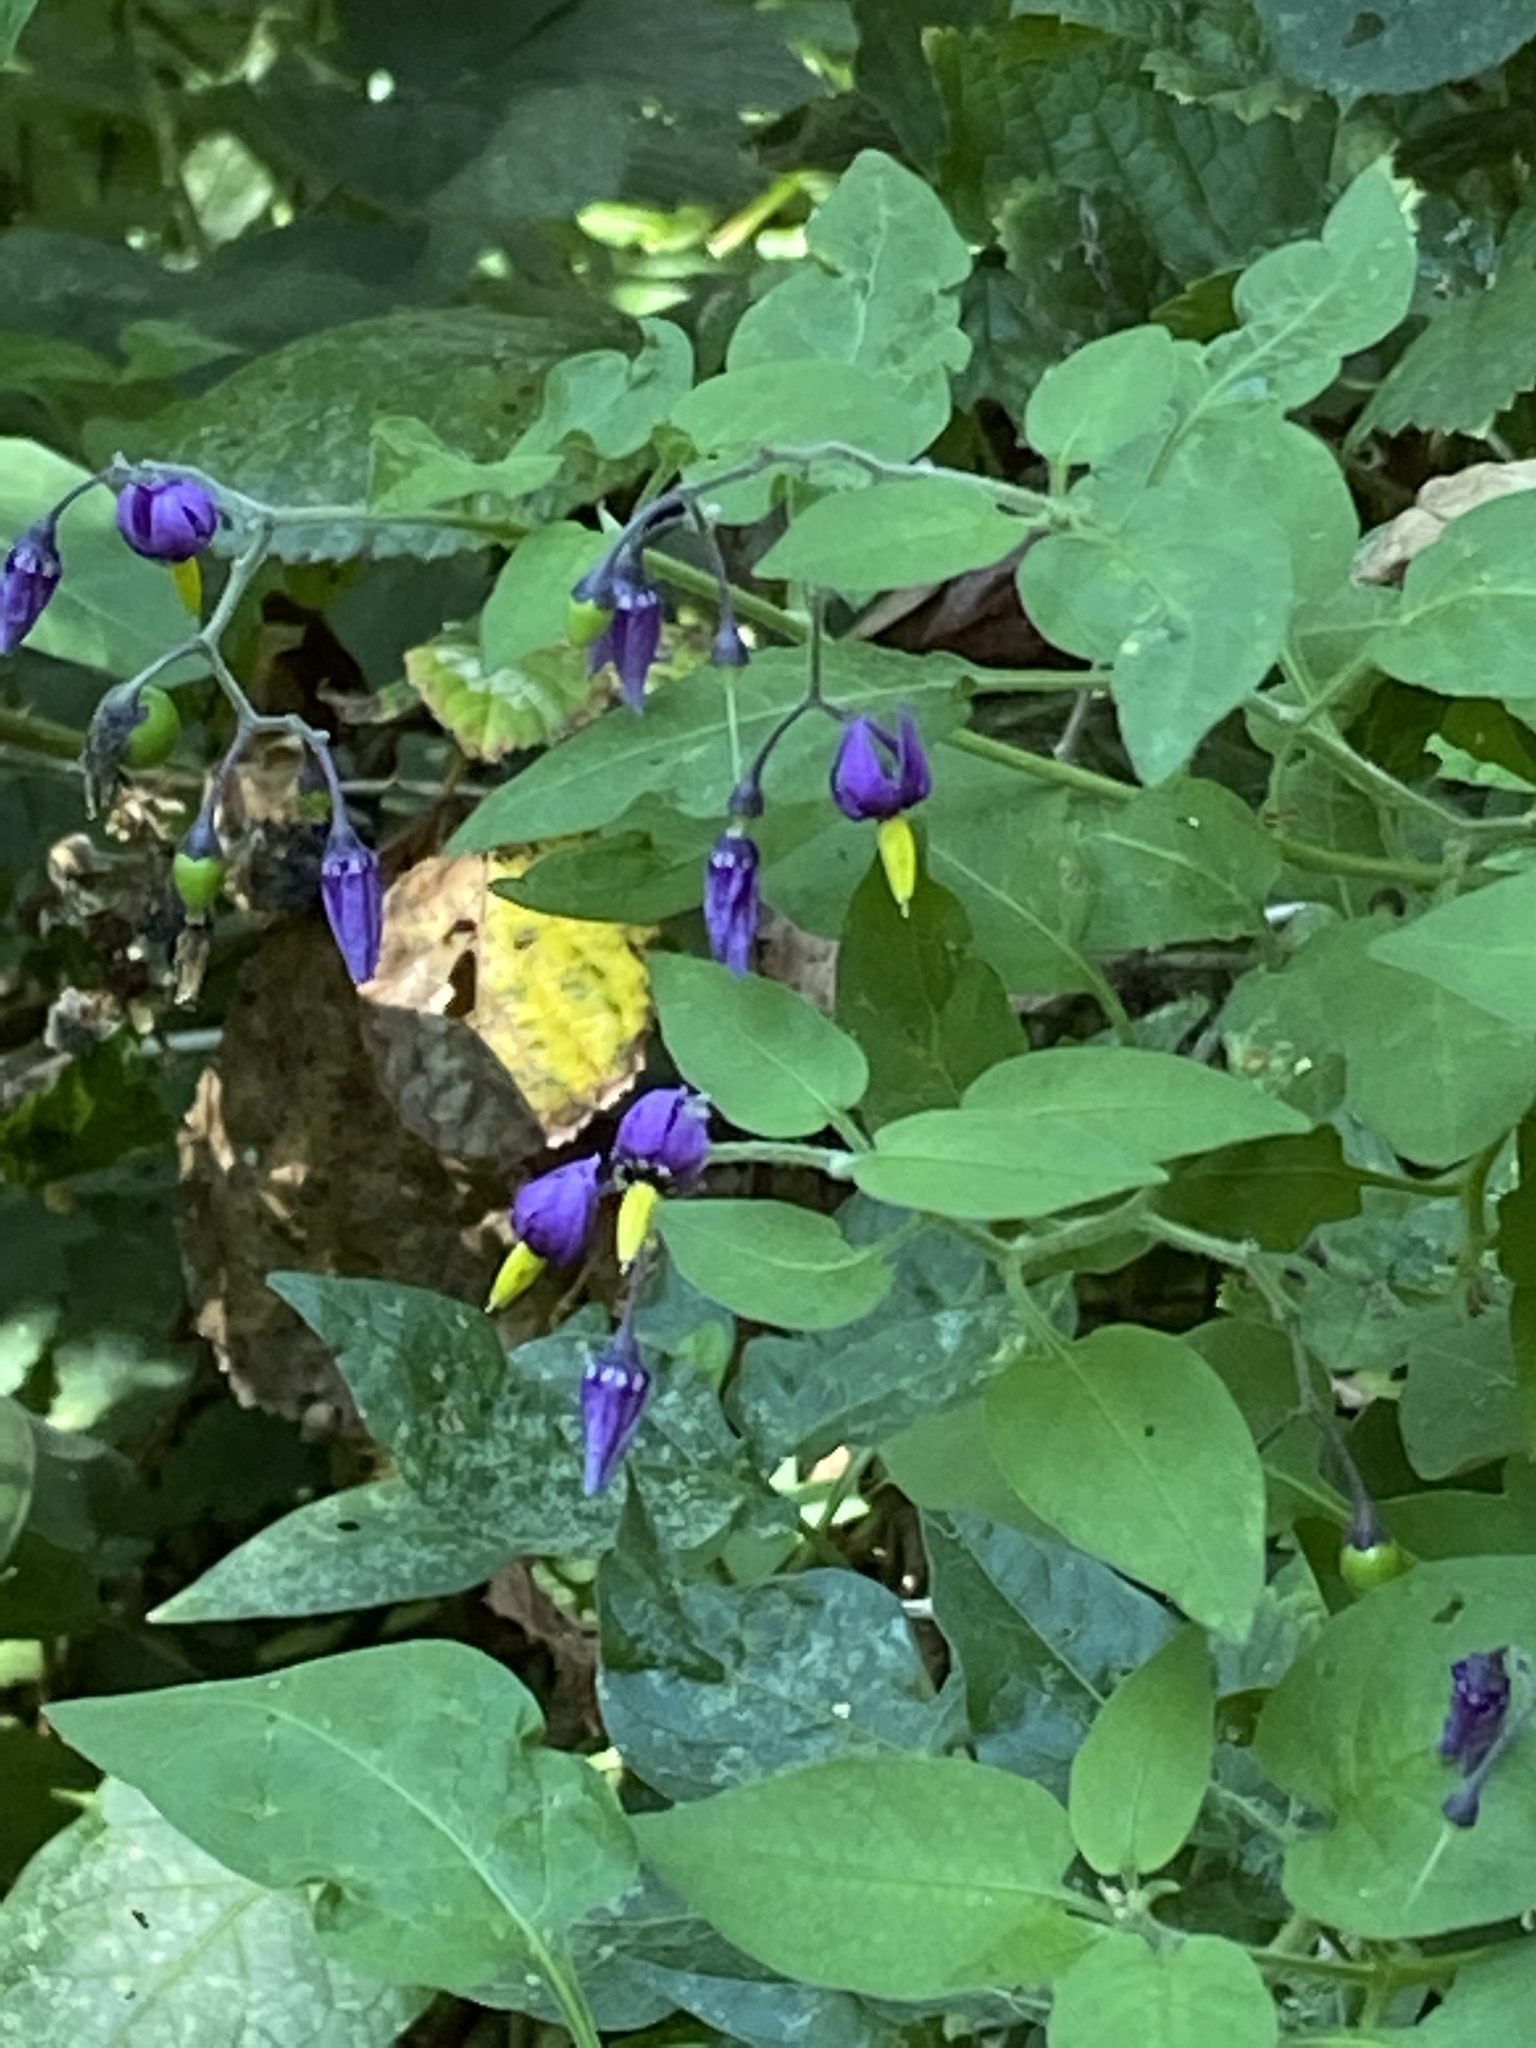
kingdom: Plantae
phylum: Tracheophyta
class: Magnoliopsida
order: Solanales
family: Solanaceae
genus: Solanum
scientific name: Solanum dulcamara
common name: Climbing nightshade
